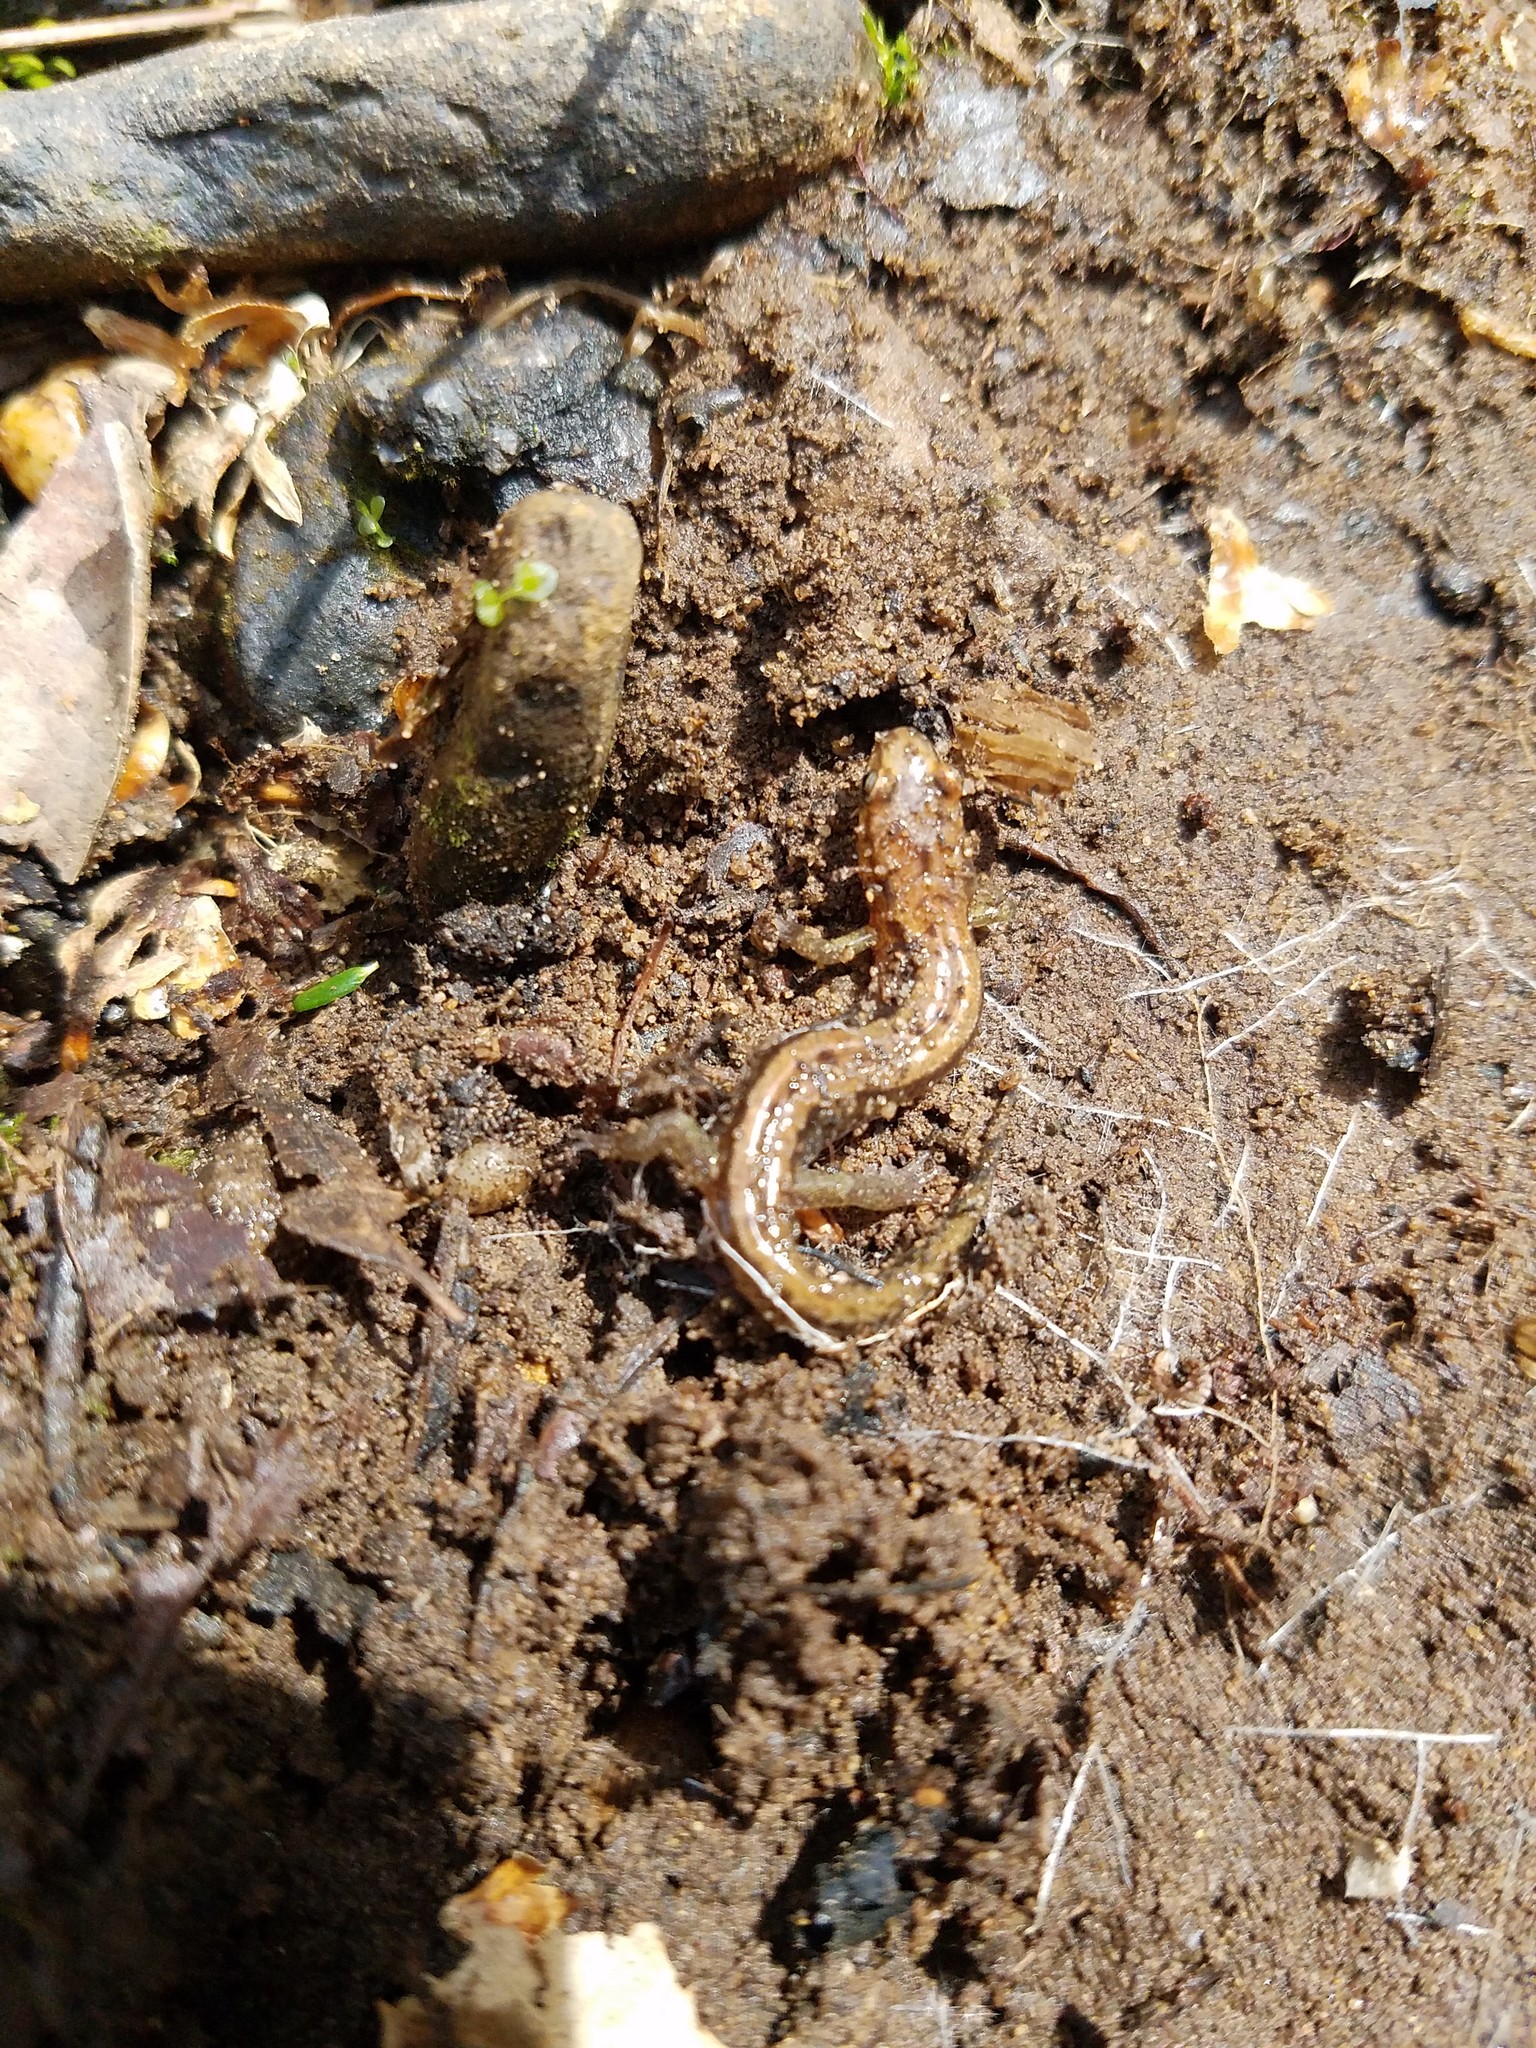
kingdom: Animalia
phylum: Chordata
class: Amphibia
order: Caudata
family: Plethodontidae
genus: Desmognathus
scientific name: Desmognathus ochrophaeus
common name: Allegheny mountain dusky salamander
